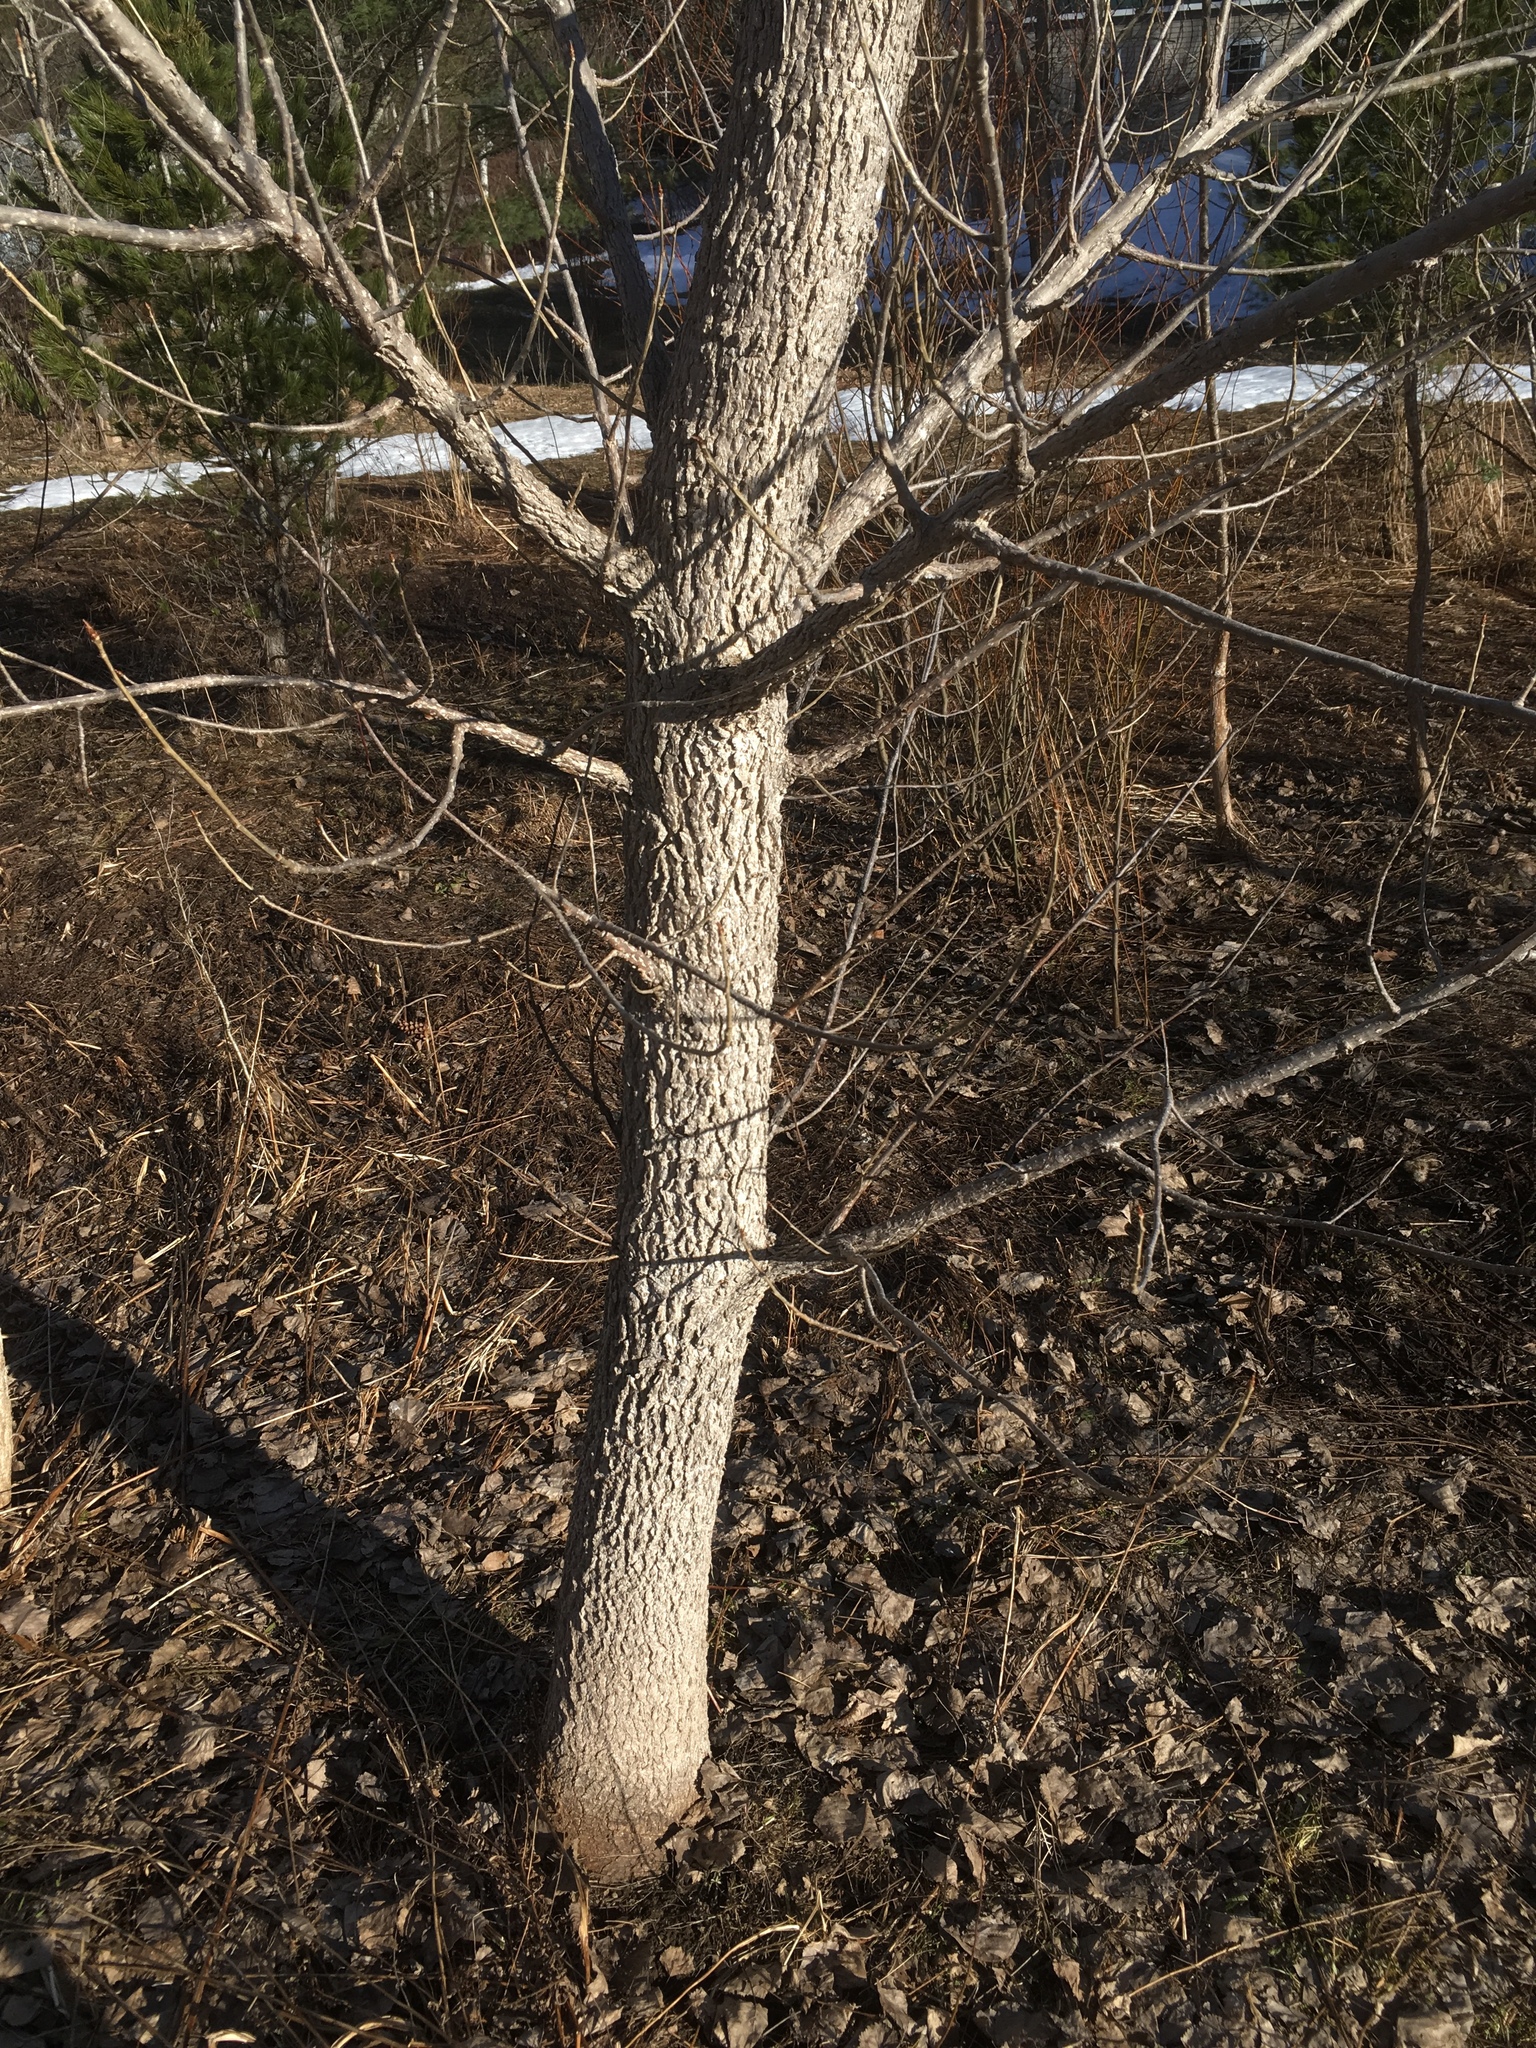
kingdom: Plantae
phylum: Tracheophyta
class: Magnoliopsida
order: Malpighiales
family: Salicaceae
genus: Populus
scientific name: Populus deltoides
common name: Eastern cottonwood
